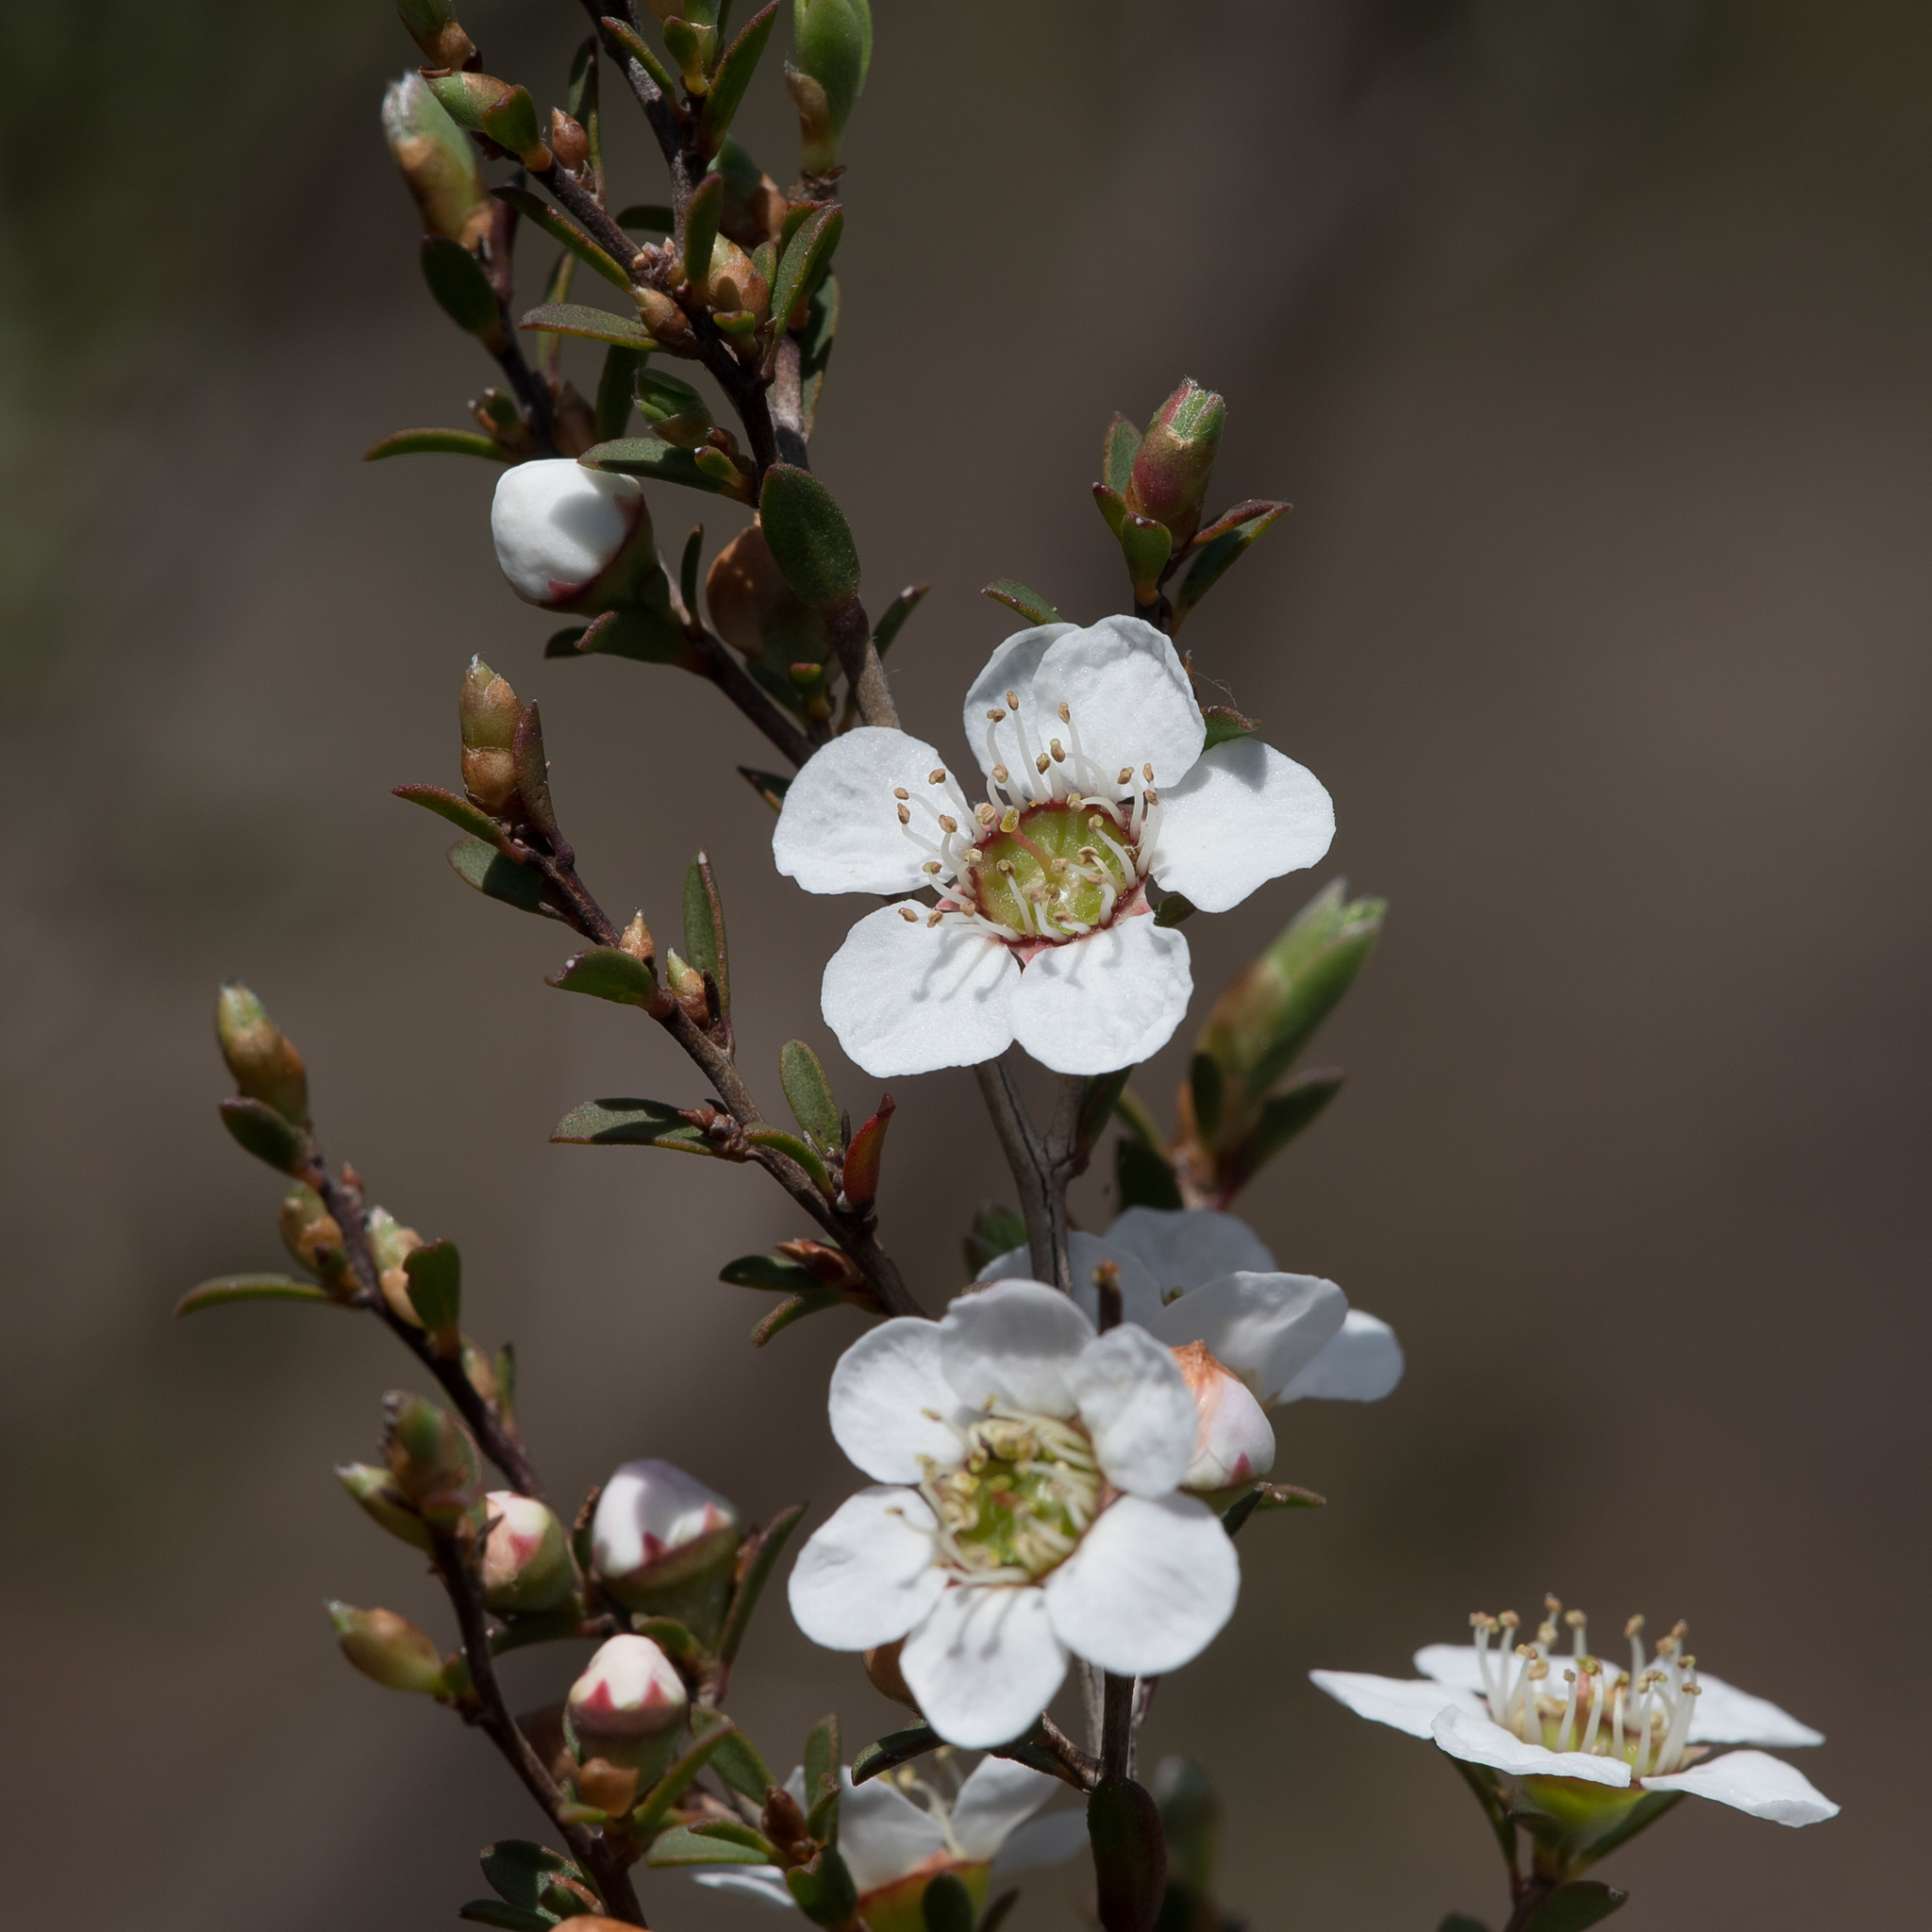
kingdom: Plantae
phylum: Tracheophyta
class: Magnoliopsida
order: Myrtales
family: Myrtaceae
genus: Leptospermum
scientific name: Leptospermum myrsinoides
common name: Heath teatree
